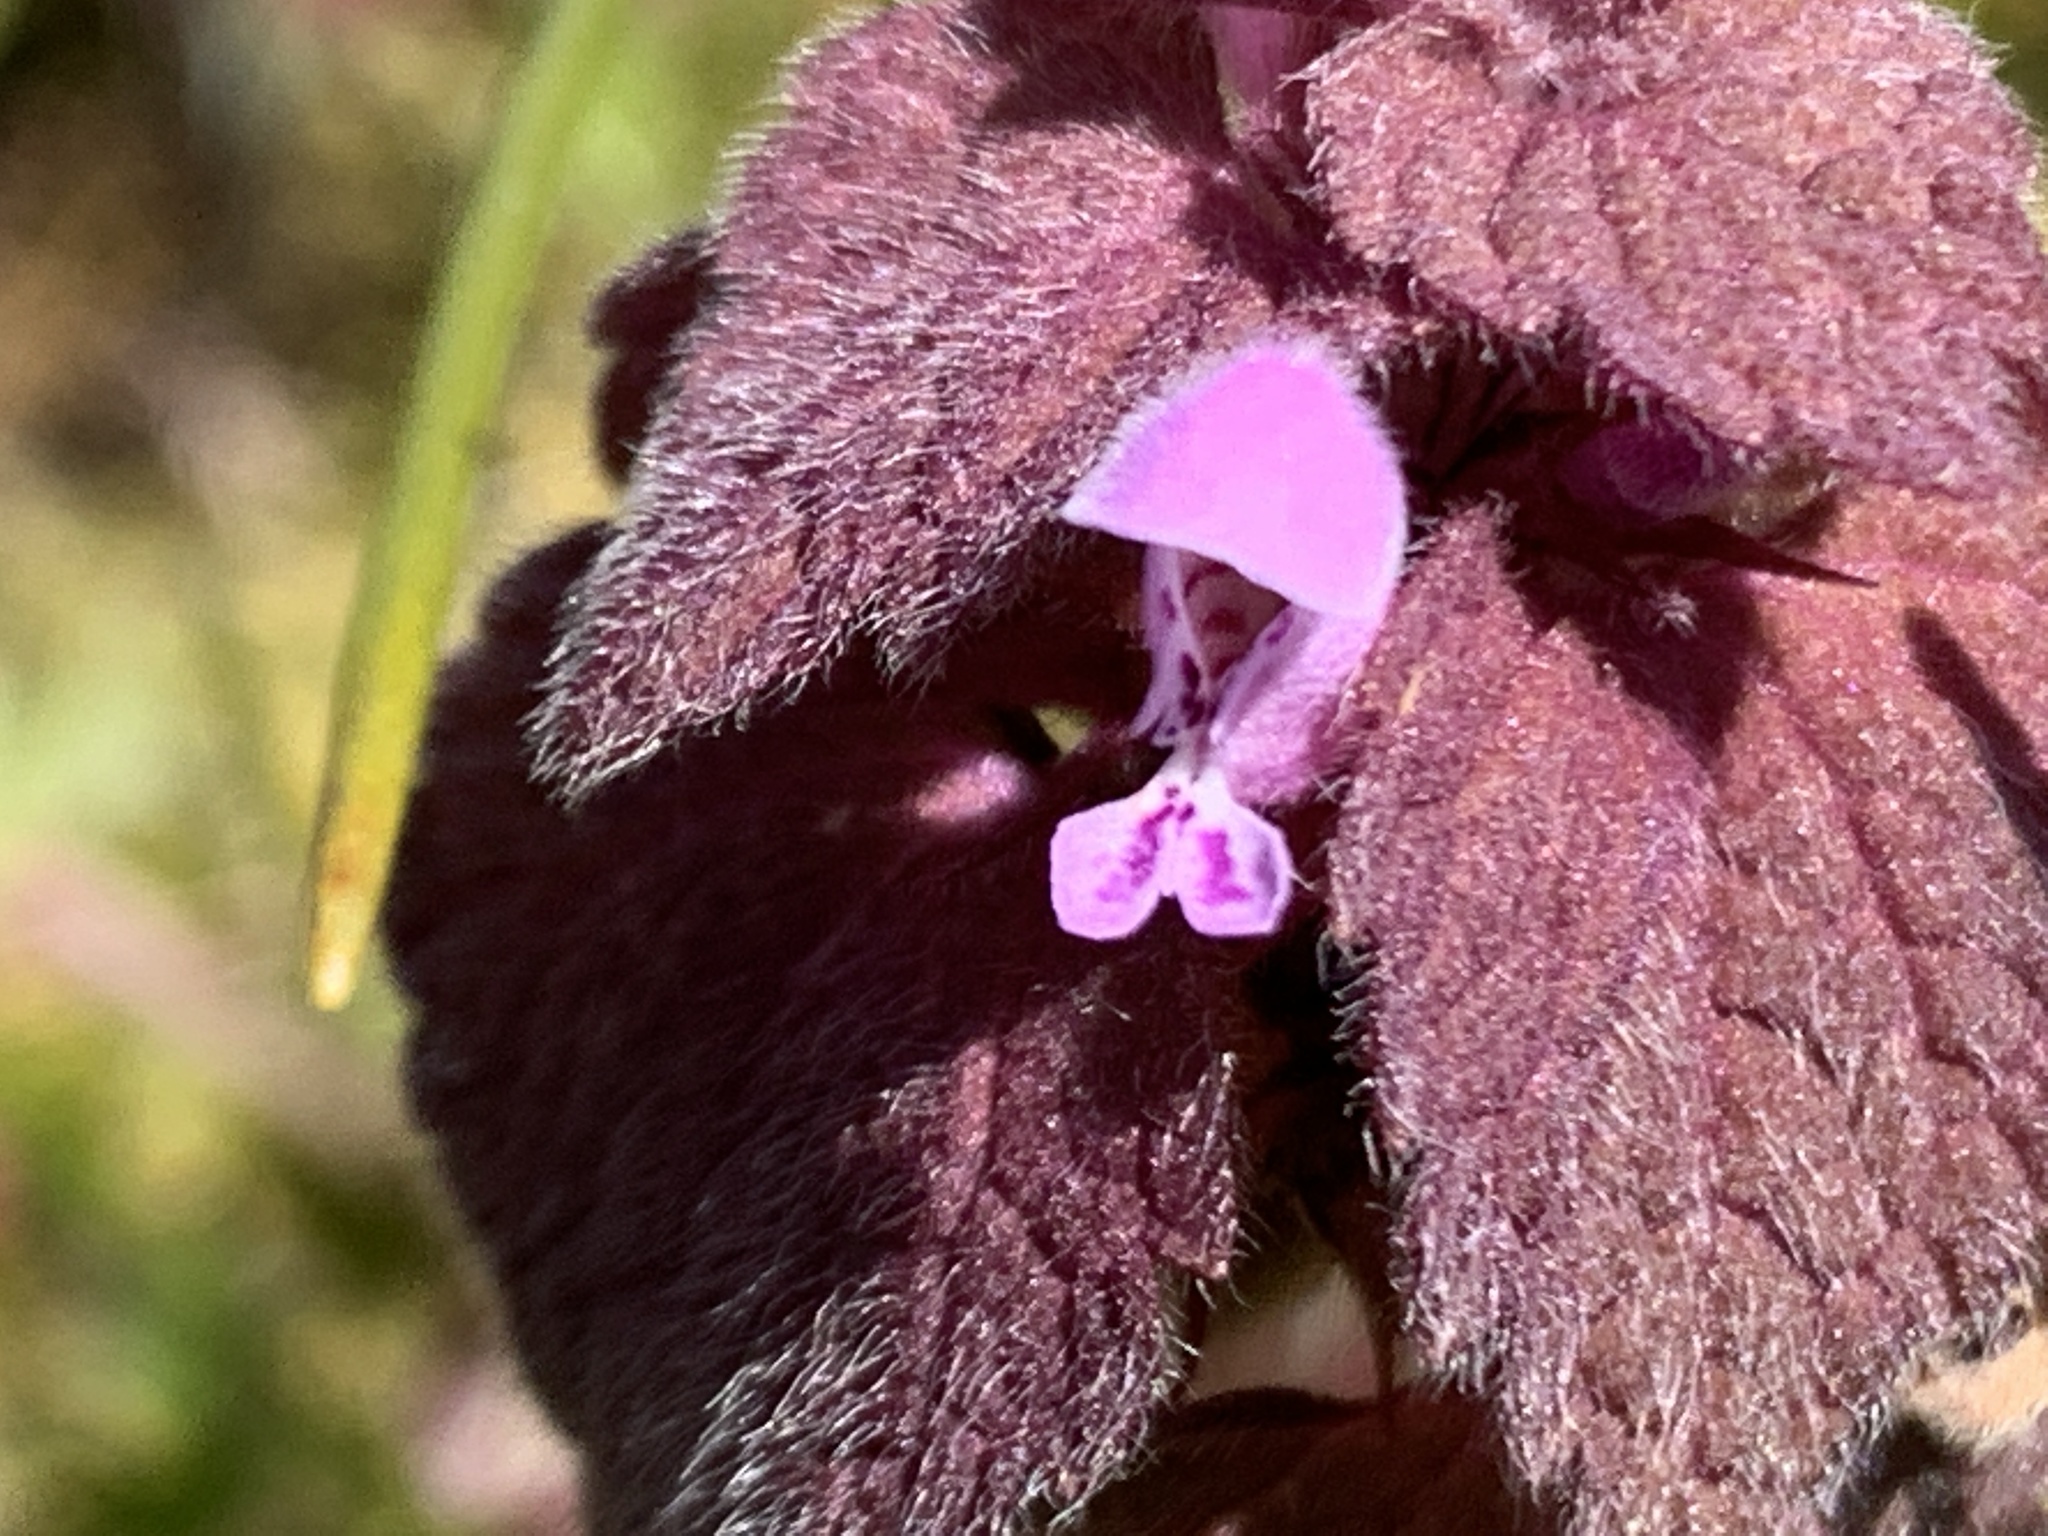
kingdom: Plantae
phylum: Tracheophyta
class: Magnoliopsida
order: Lamiales
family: Lamiaceae
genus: Lamium
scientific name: Lamium purpureum
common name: Red dead-nettle
